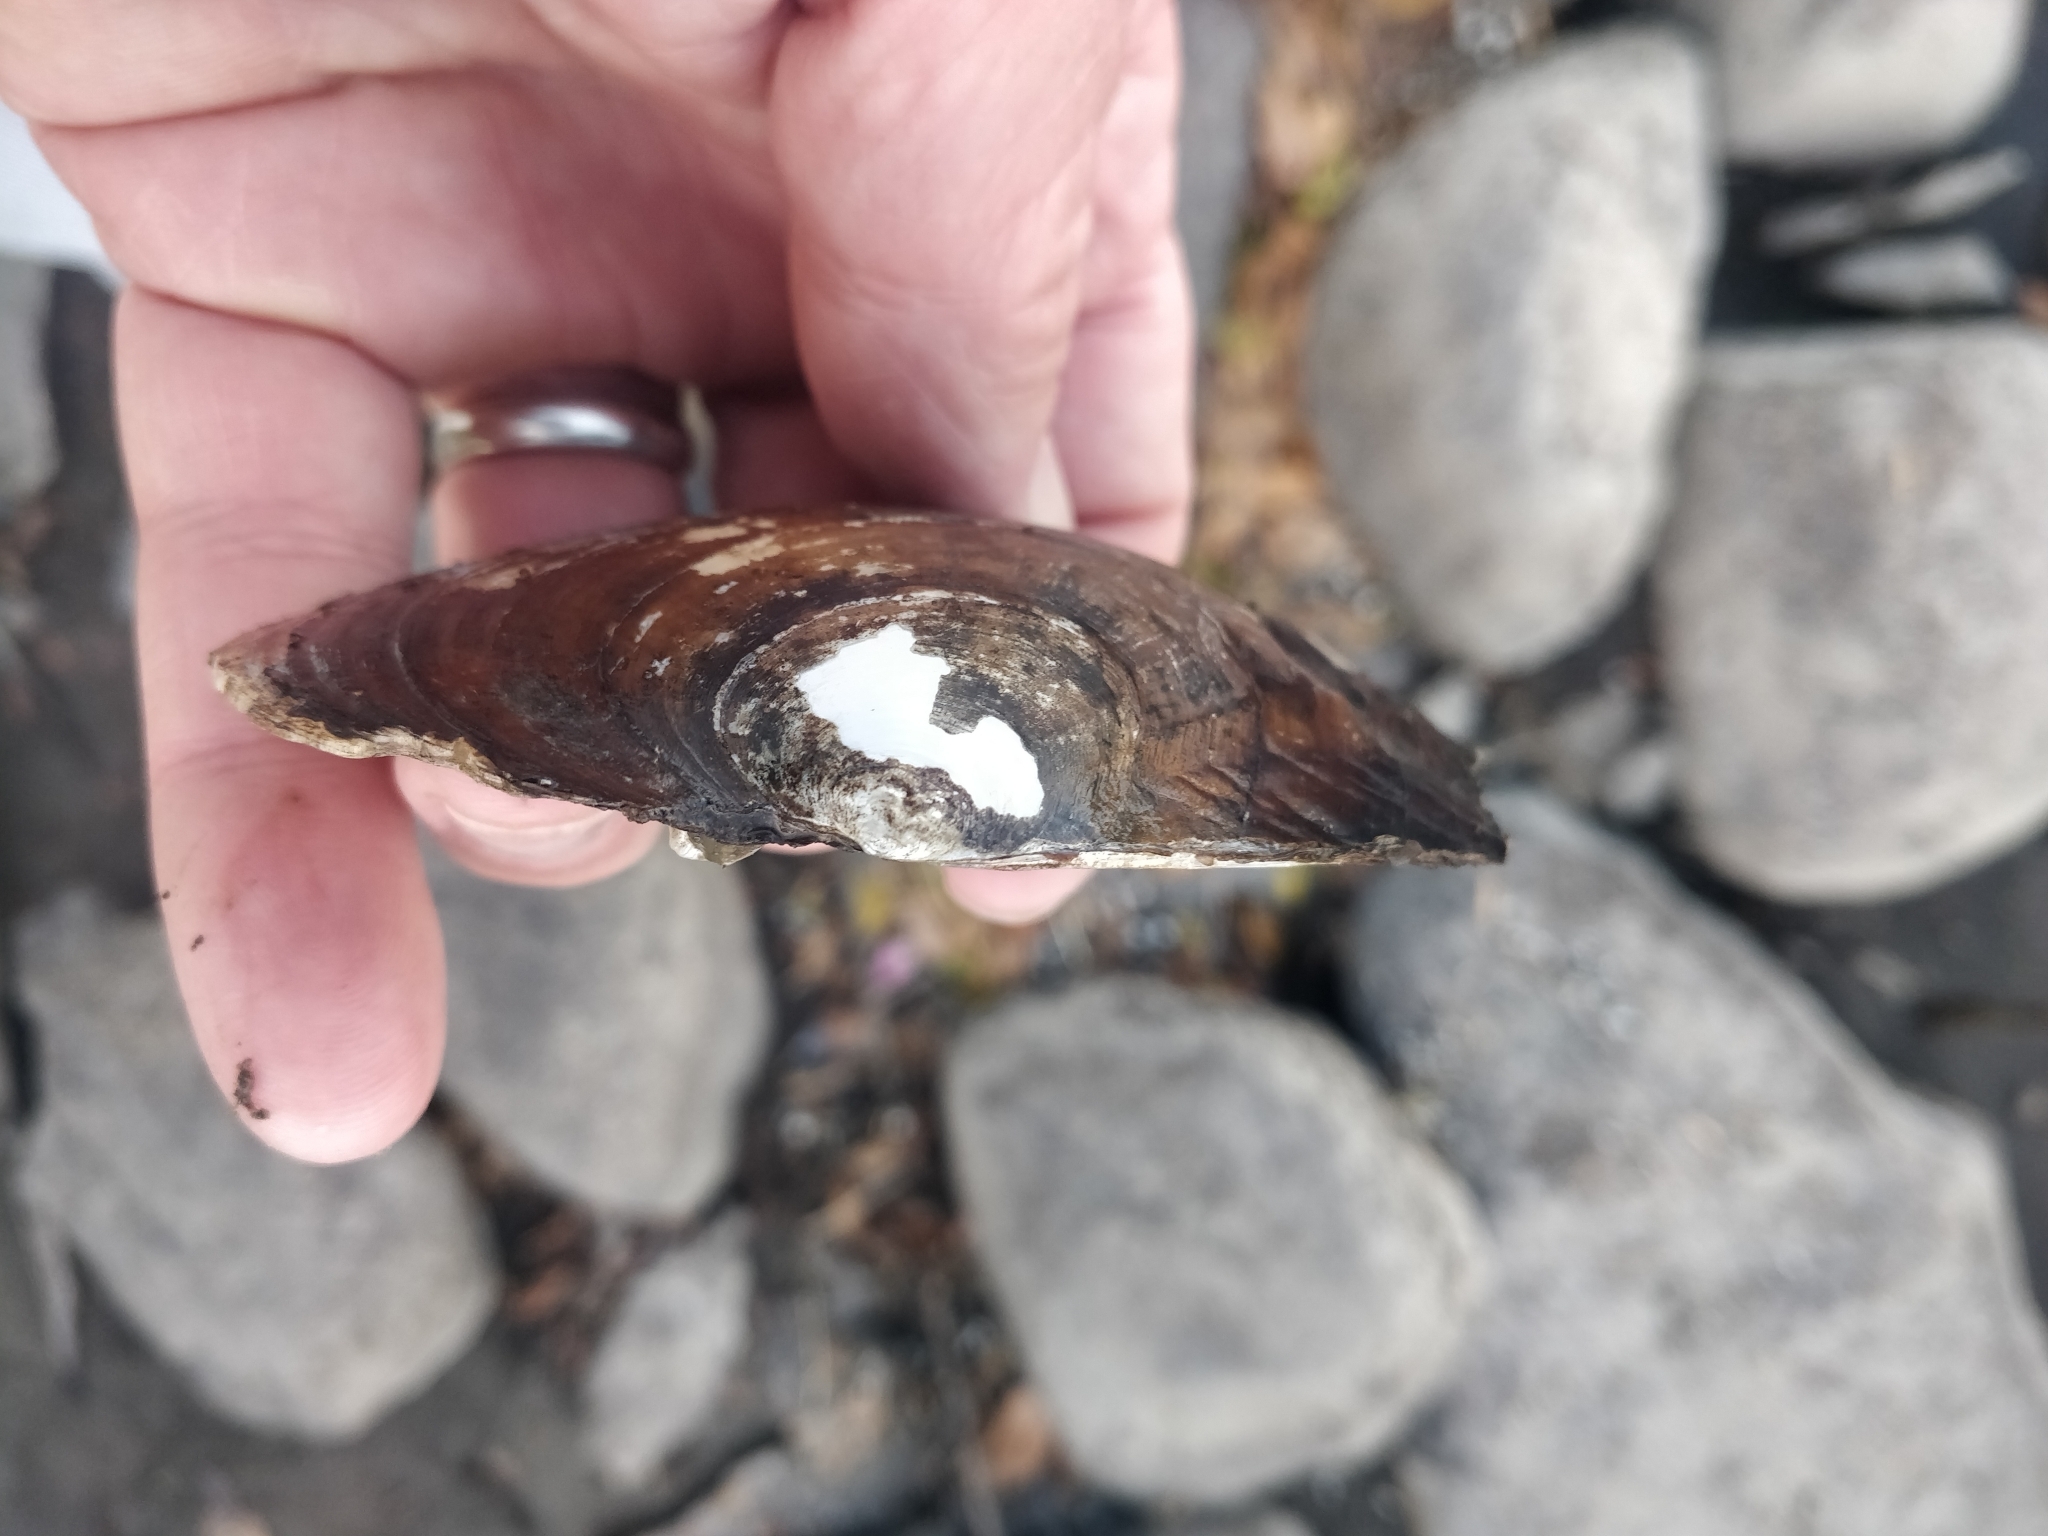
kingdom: Animalia
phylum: Mollusca
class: Bivalvia
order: Unionida
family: Unionidae
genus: Lasmigona
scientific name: Lasmigona complanata
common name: White heelsplitter
